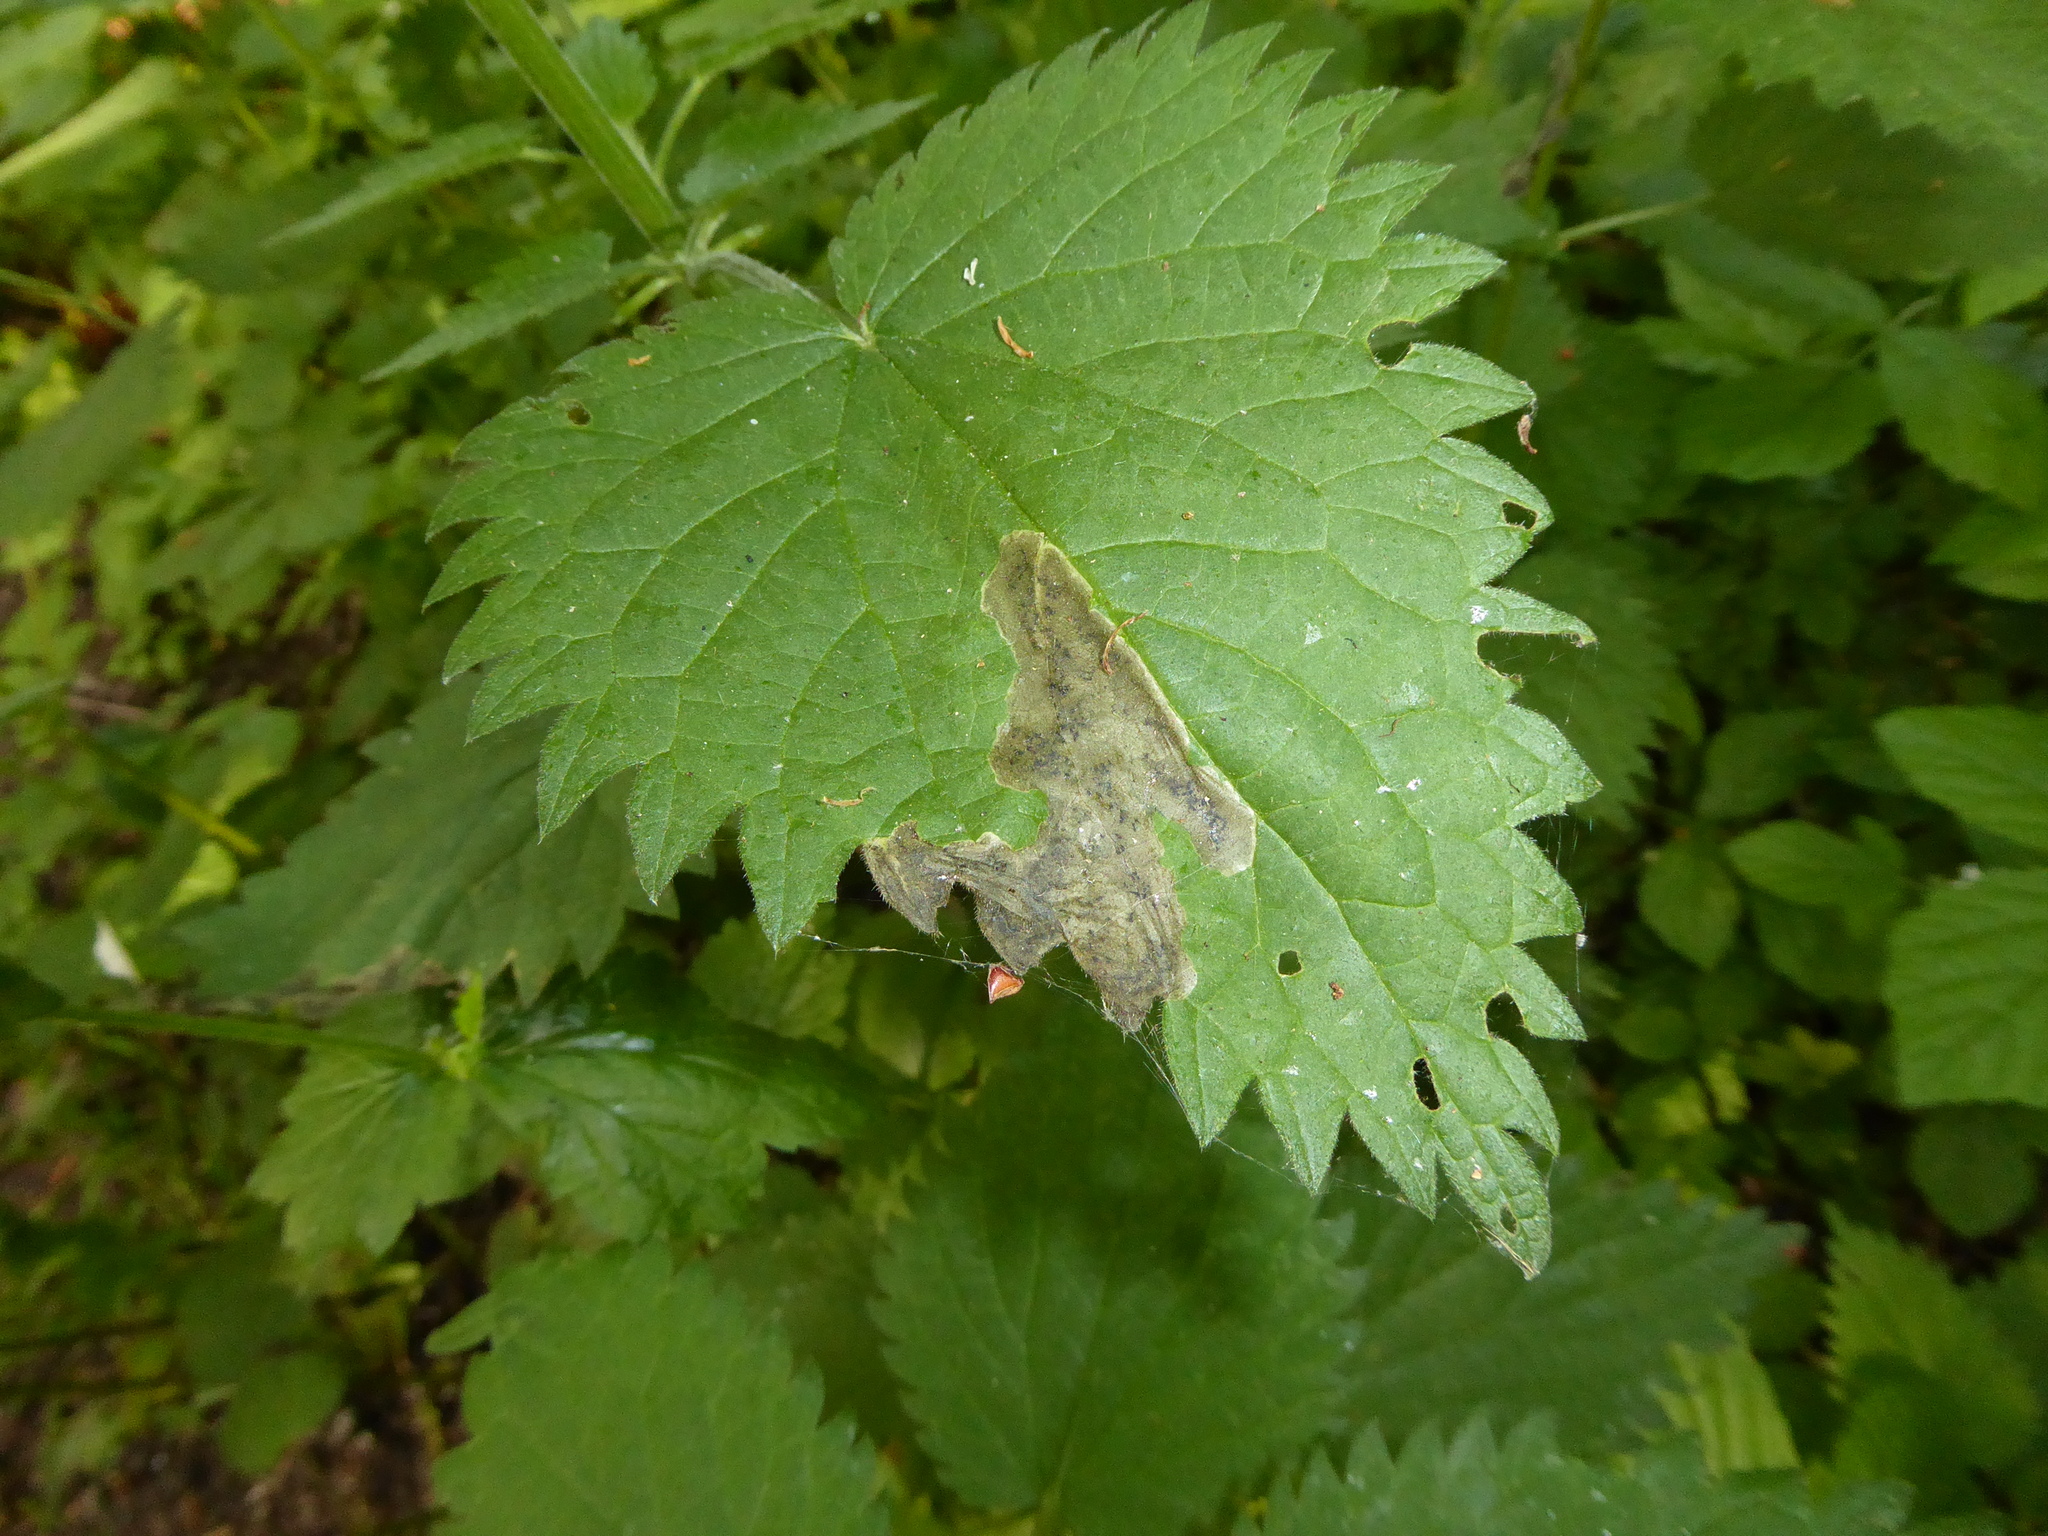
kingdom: Plantae
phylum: Tracheophyta
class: Magnoliopsida
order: Rosales
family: Urticaceae
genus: Urtica
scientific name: Urtica dioica
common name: Common nettle
